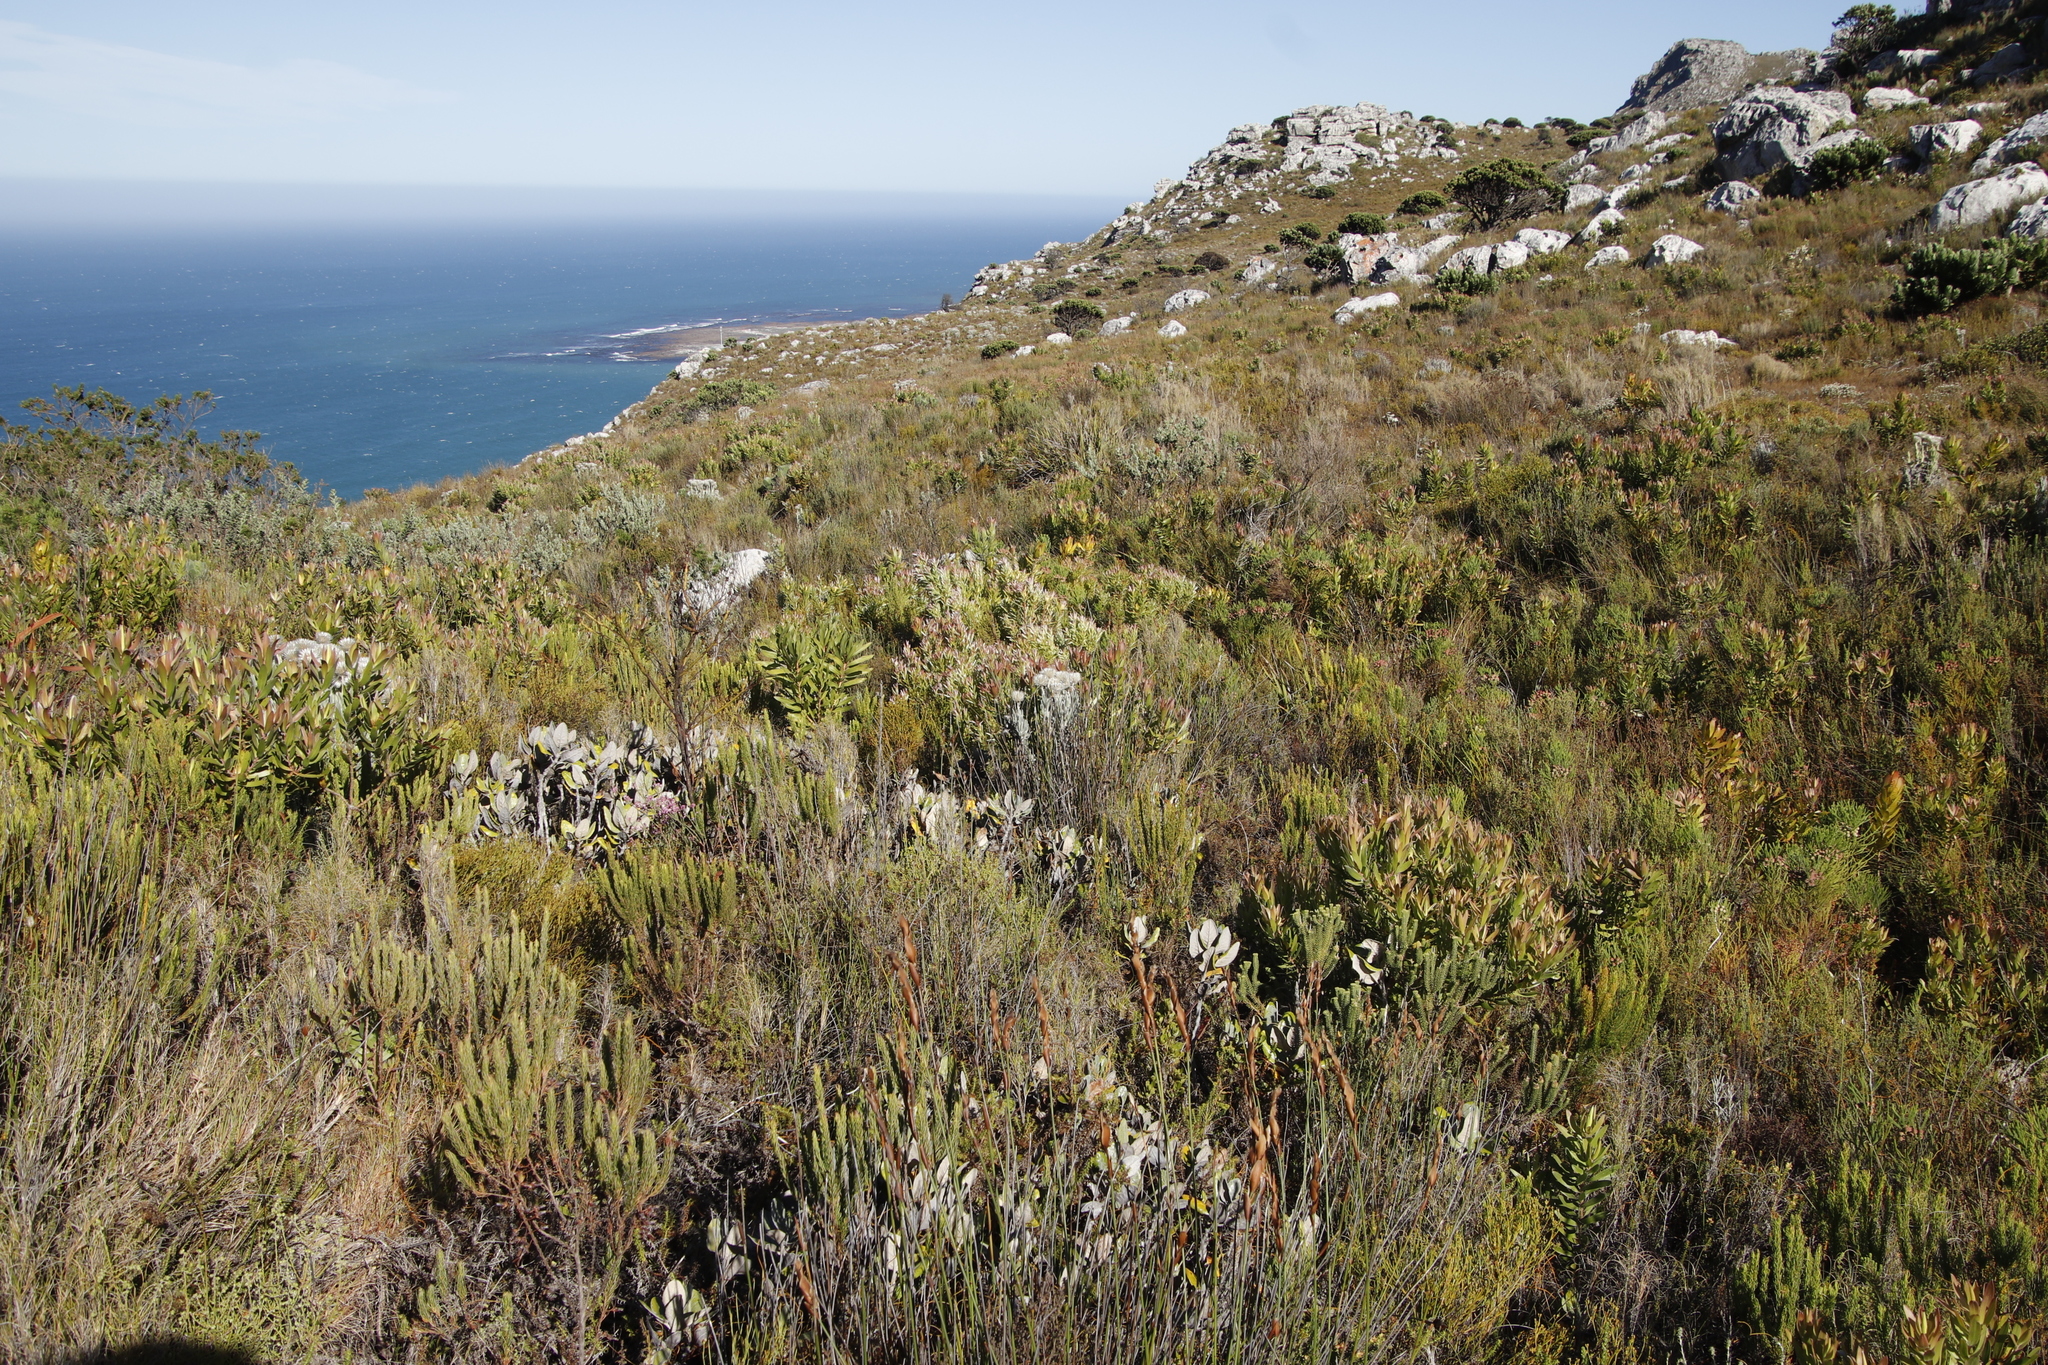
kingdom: Plantae
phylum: Tracheophyta
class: Magnoliopsida
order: Proteales
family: Proteaceae
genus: Leucadendron
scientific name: Leucadendron xanthoconus
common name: Sickle-leaf conebush
